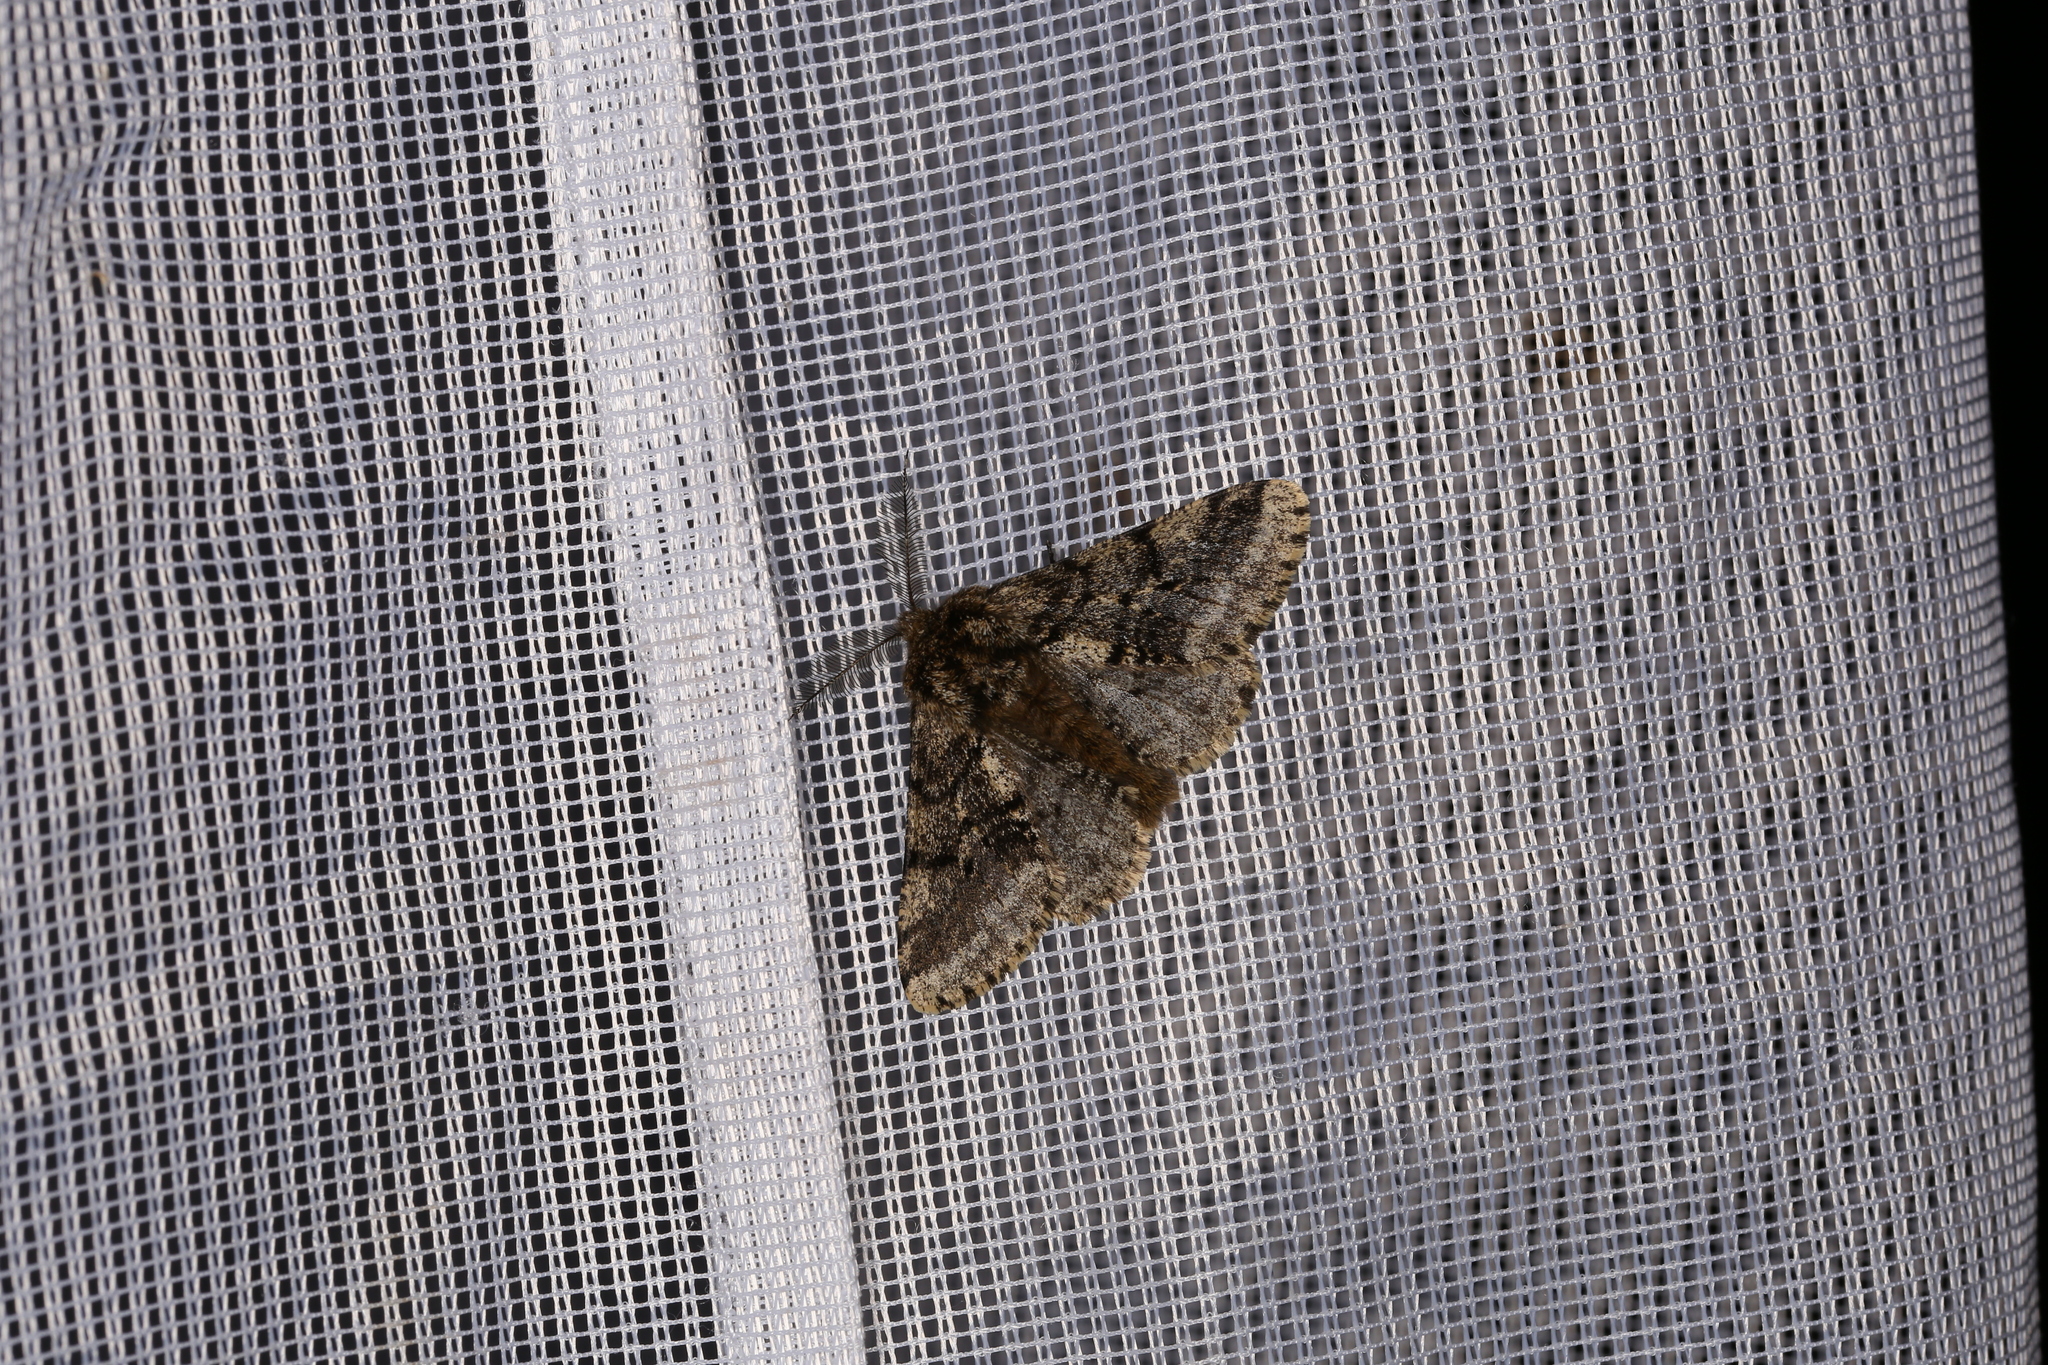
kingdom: Animalia
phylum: Arthropoda
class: Insecta
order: Lepidoptera
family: Geometridae
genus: Lycia
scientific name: Lycia hirtaria
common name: Brindled beauty
